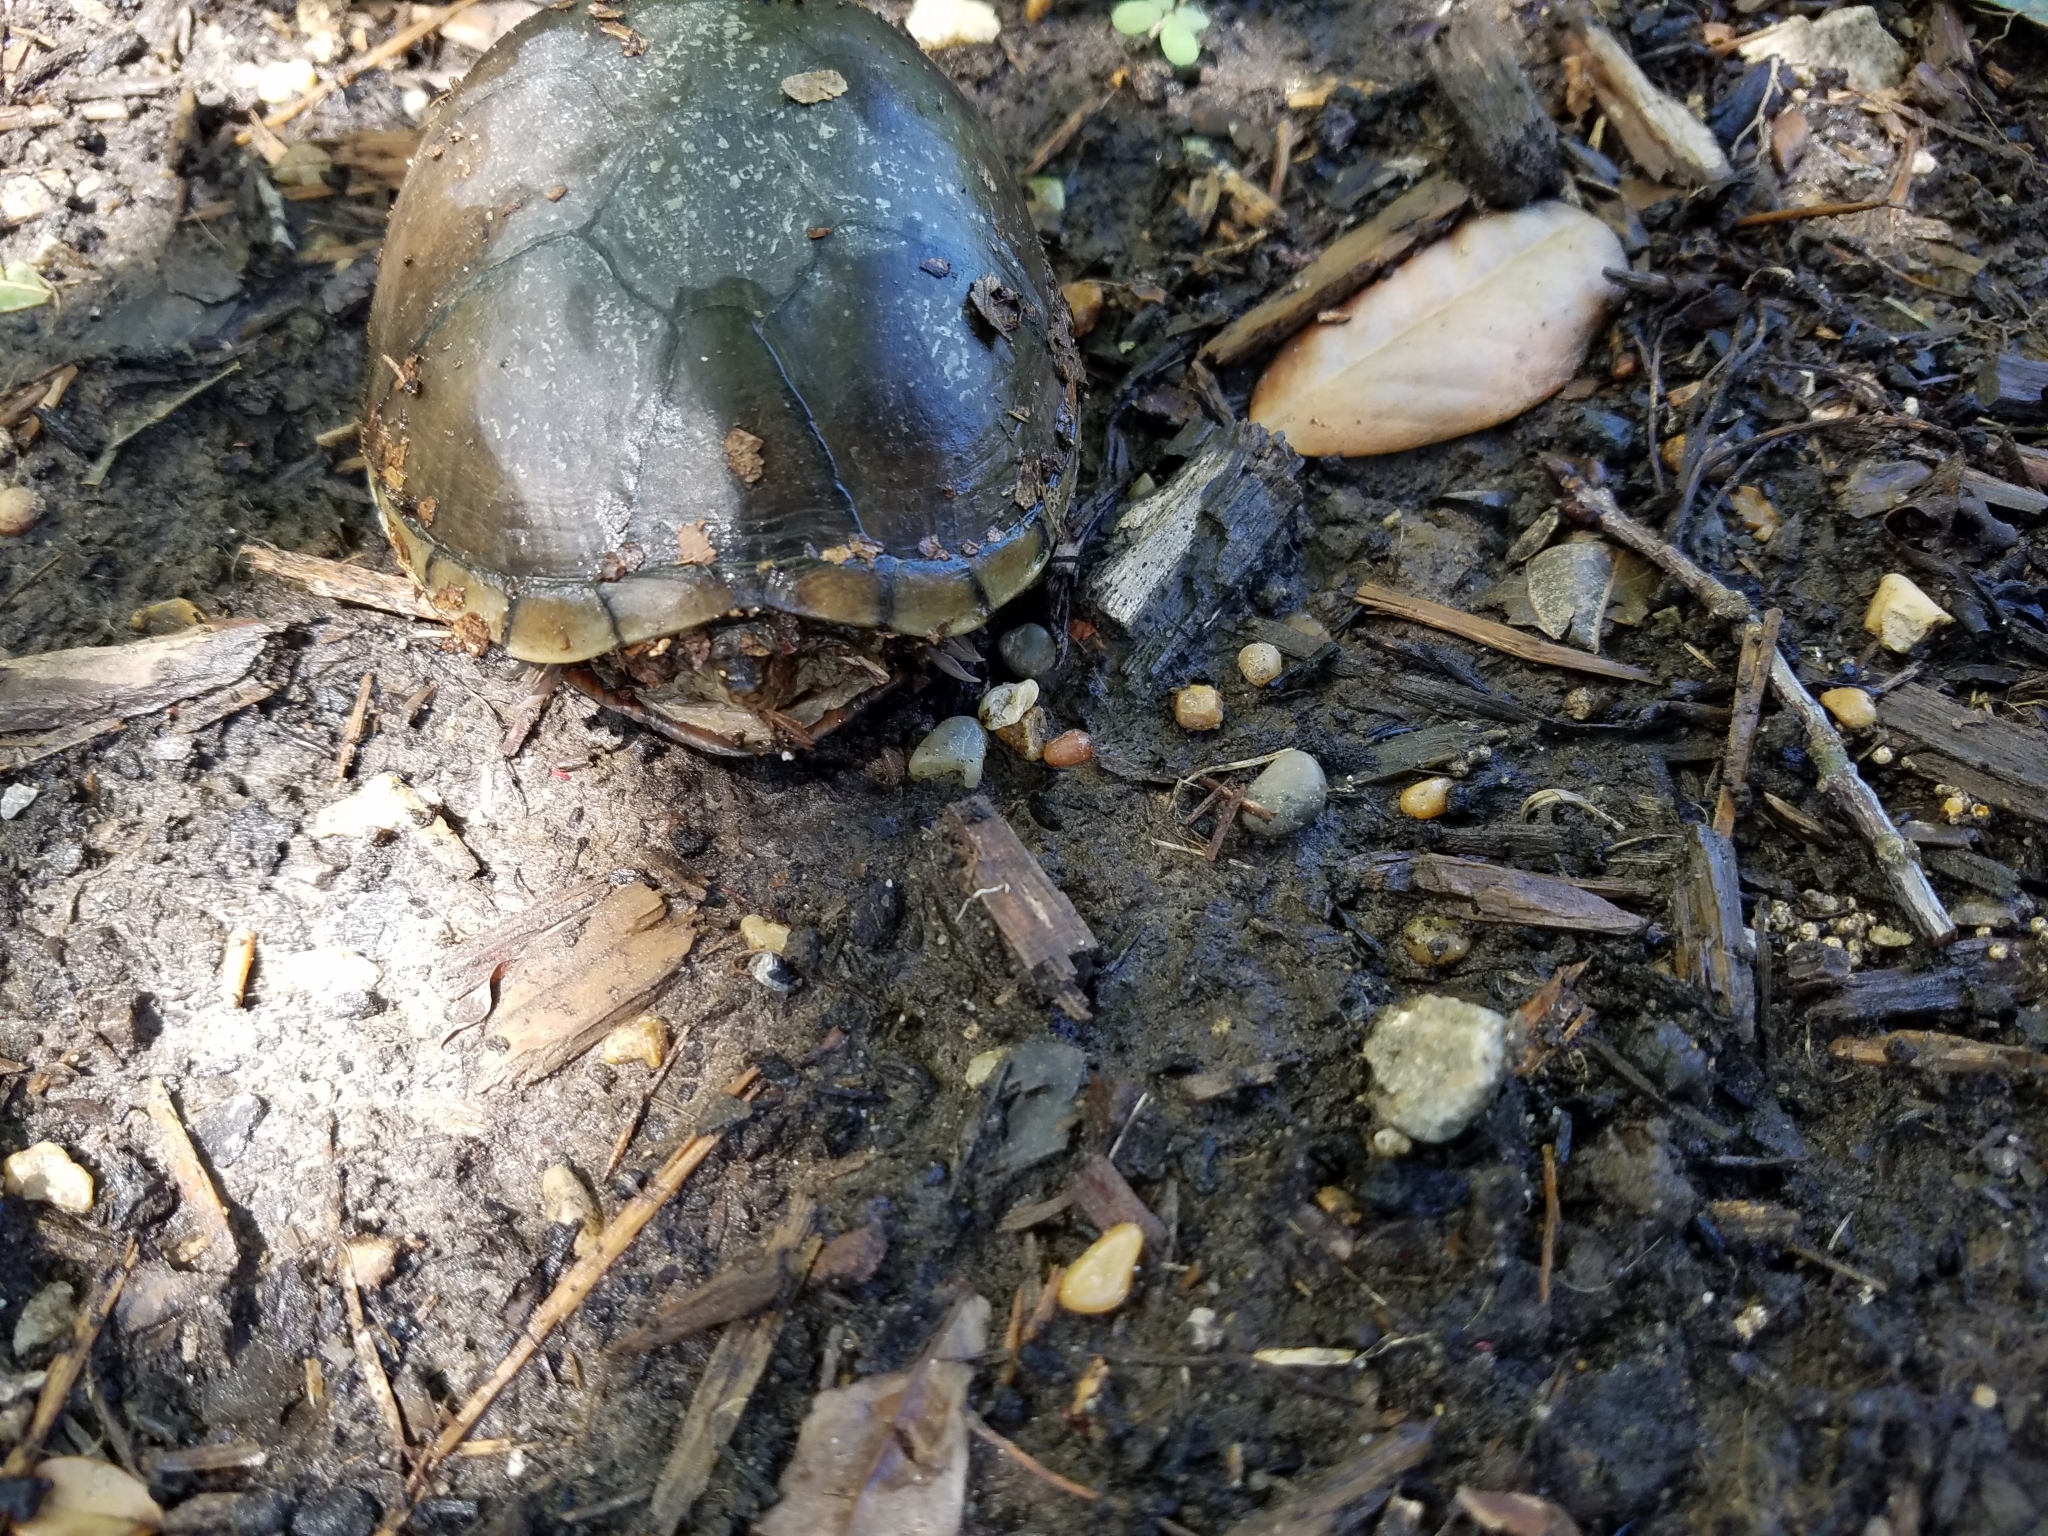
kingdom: Animalia
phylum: Chordata
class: Testudines
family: Kinosternidae
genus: Kinosternon
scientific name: Kinosternon subrubrum
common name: Eastern mud turtle
